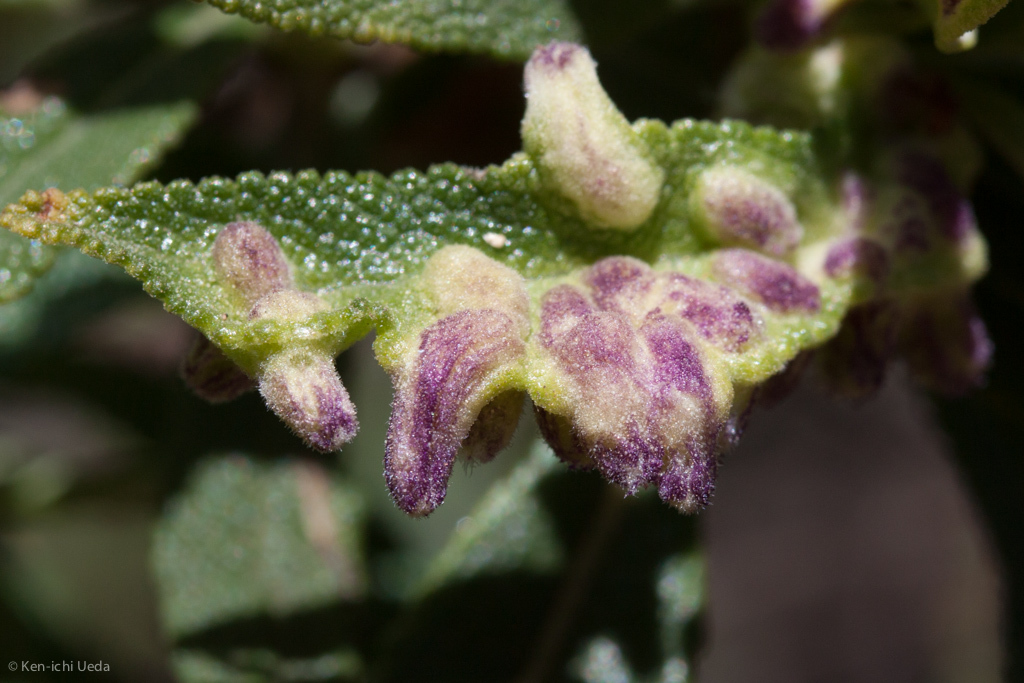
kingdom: Animalia
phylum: Arthropoda
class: Insecta
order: Diptera
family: Cecidomyiidae
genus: Rhopalomyia
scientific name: Rhopalomyia audibertiae
